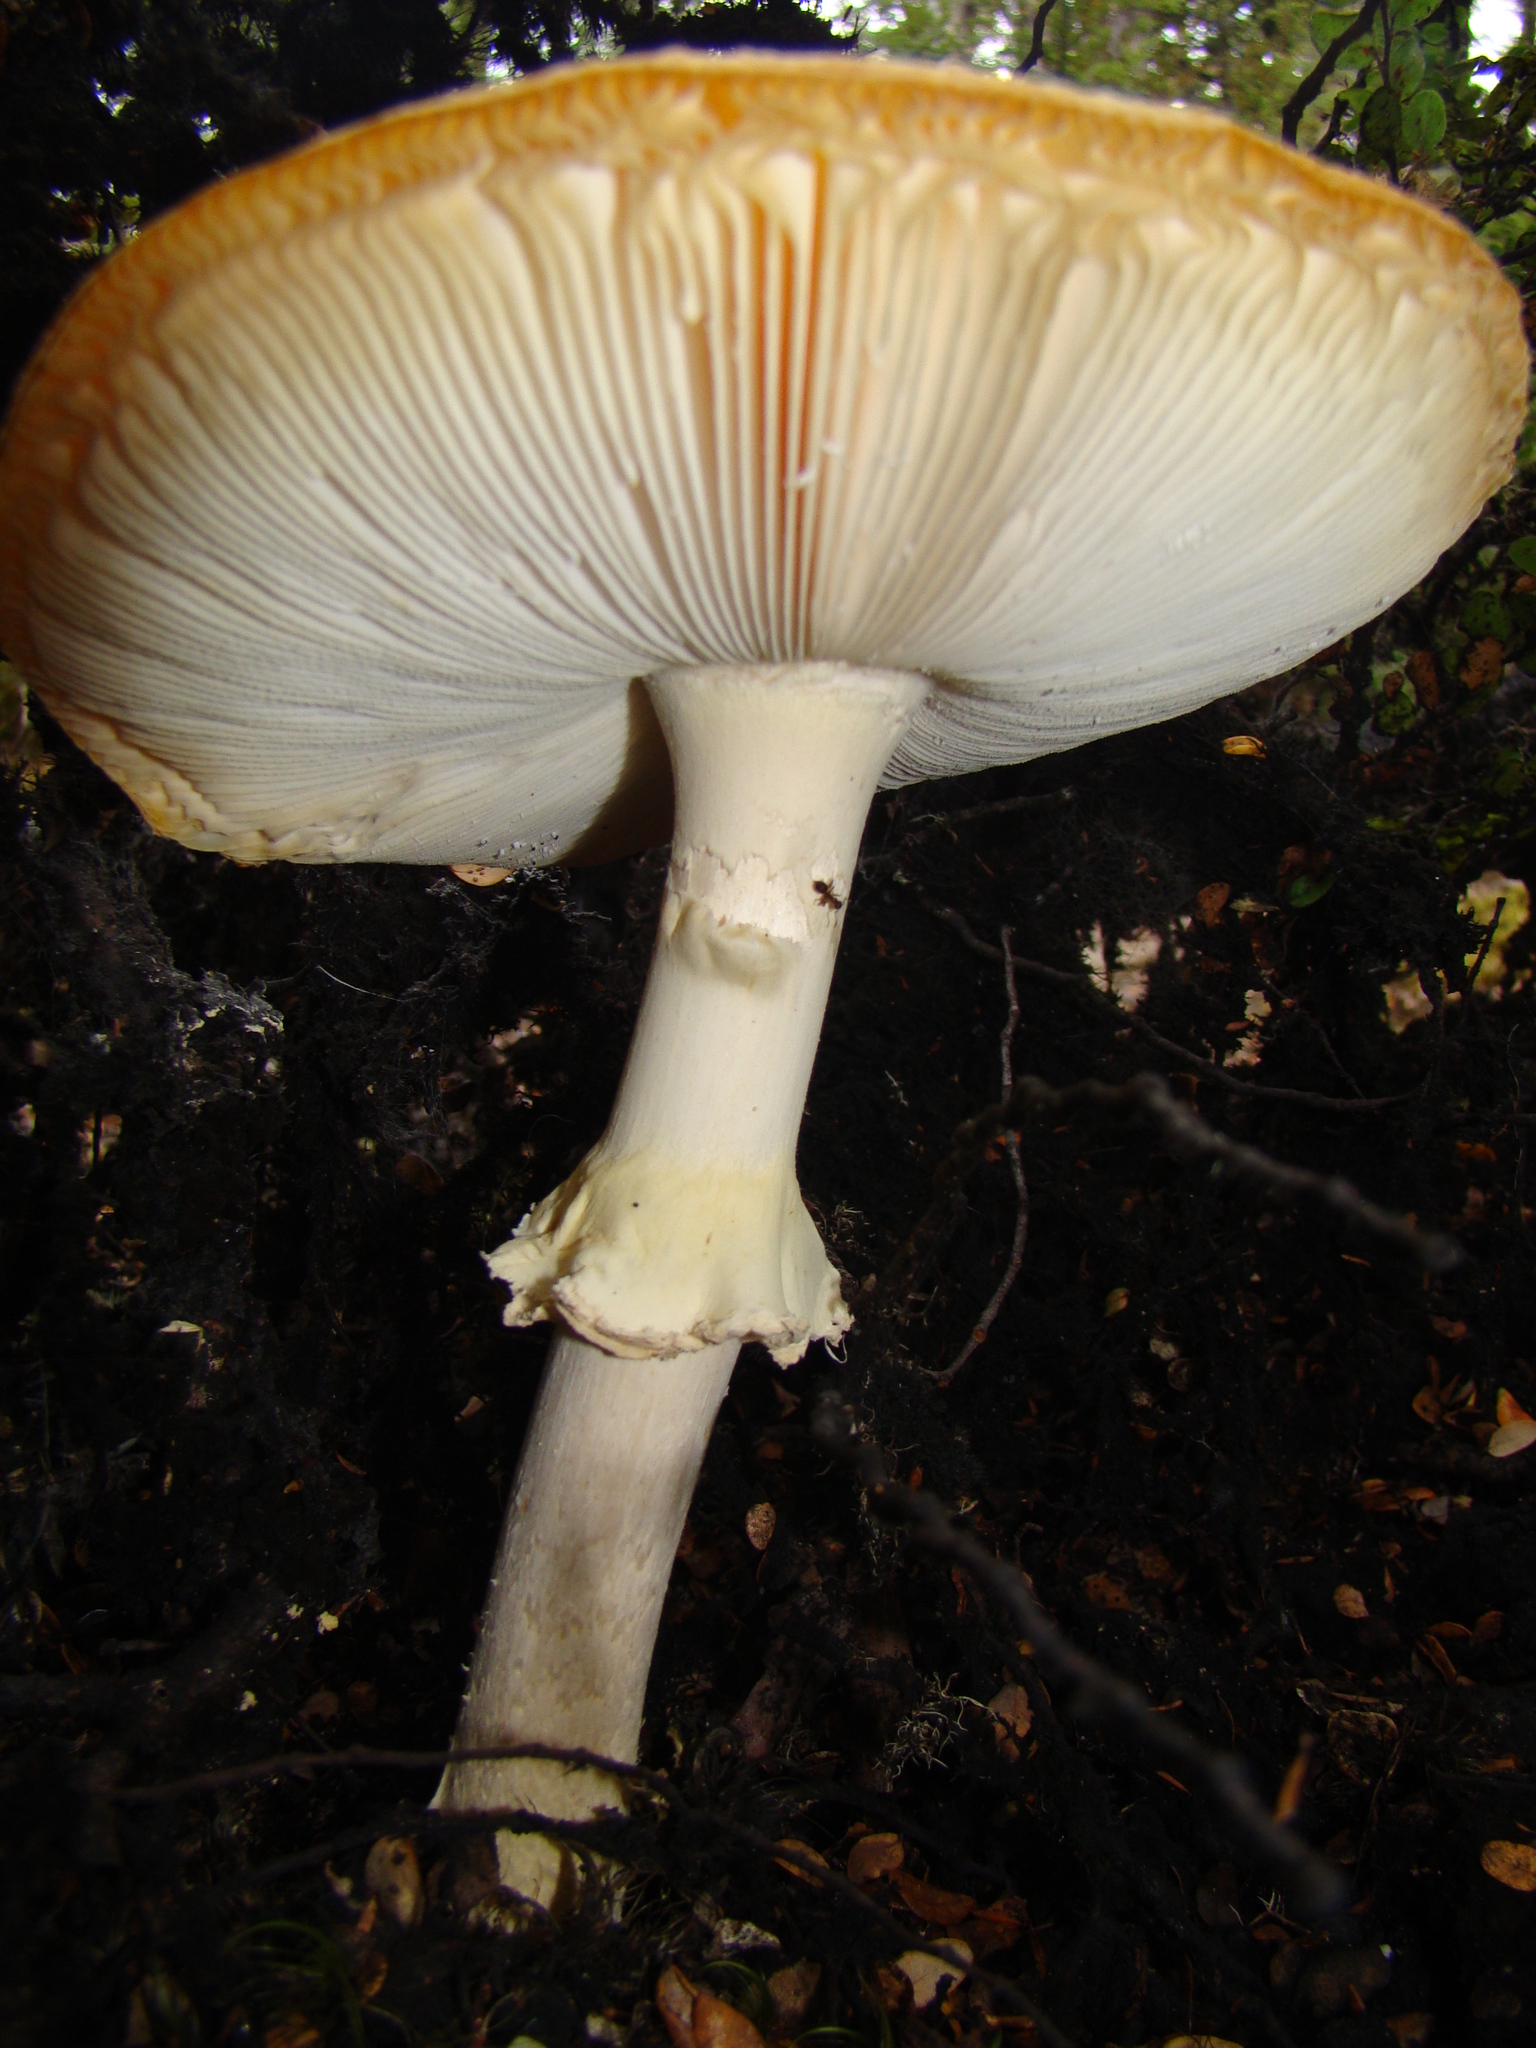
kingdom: Fungi
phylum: Basidiomycota
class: Agaricomycetes
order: Agaricales
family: Amanitaceae
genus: Amanita
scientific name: Amanita muscaria
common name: Fly agaric
